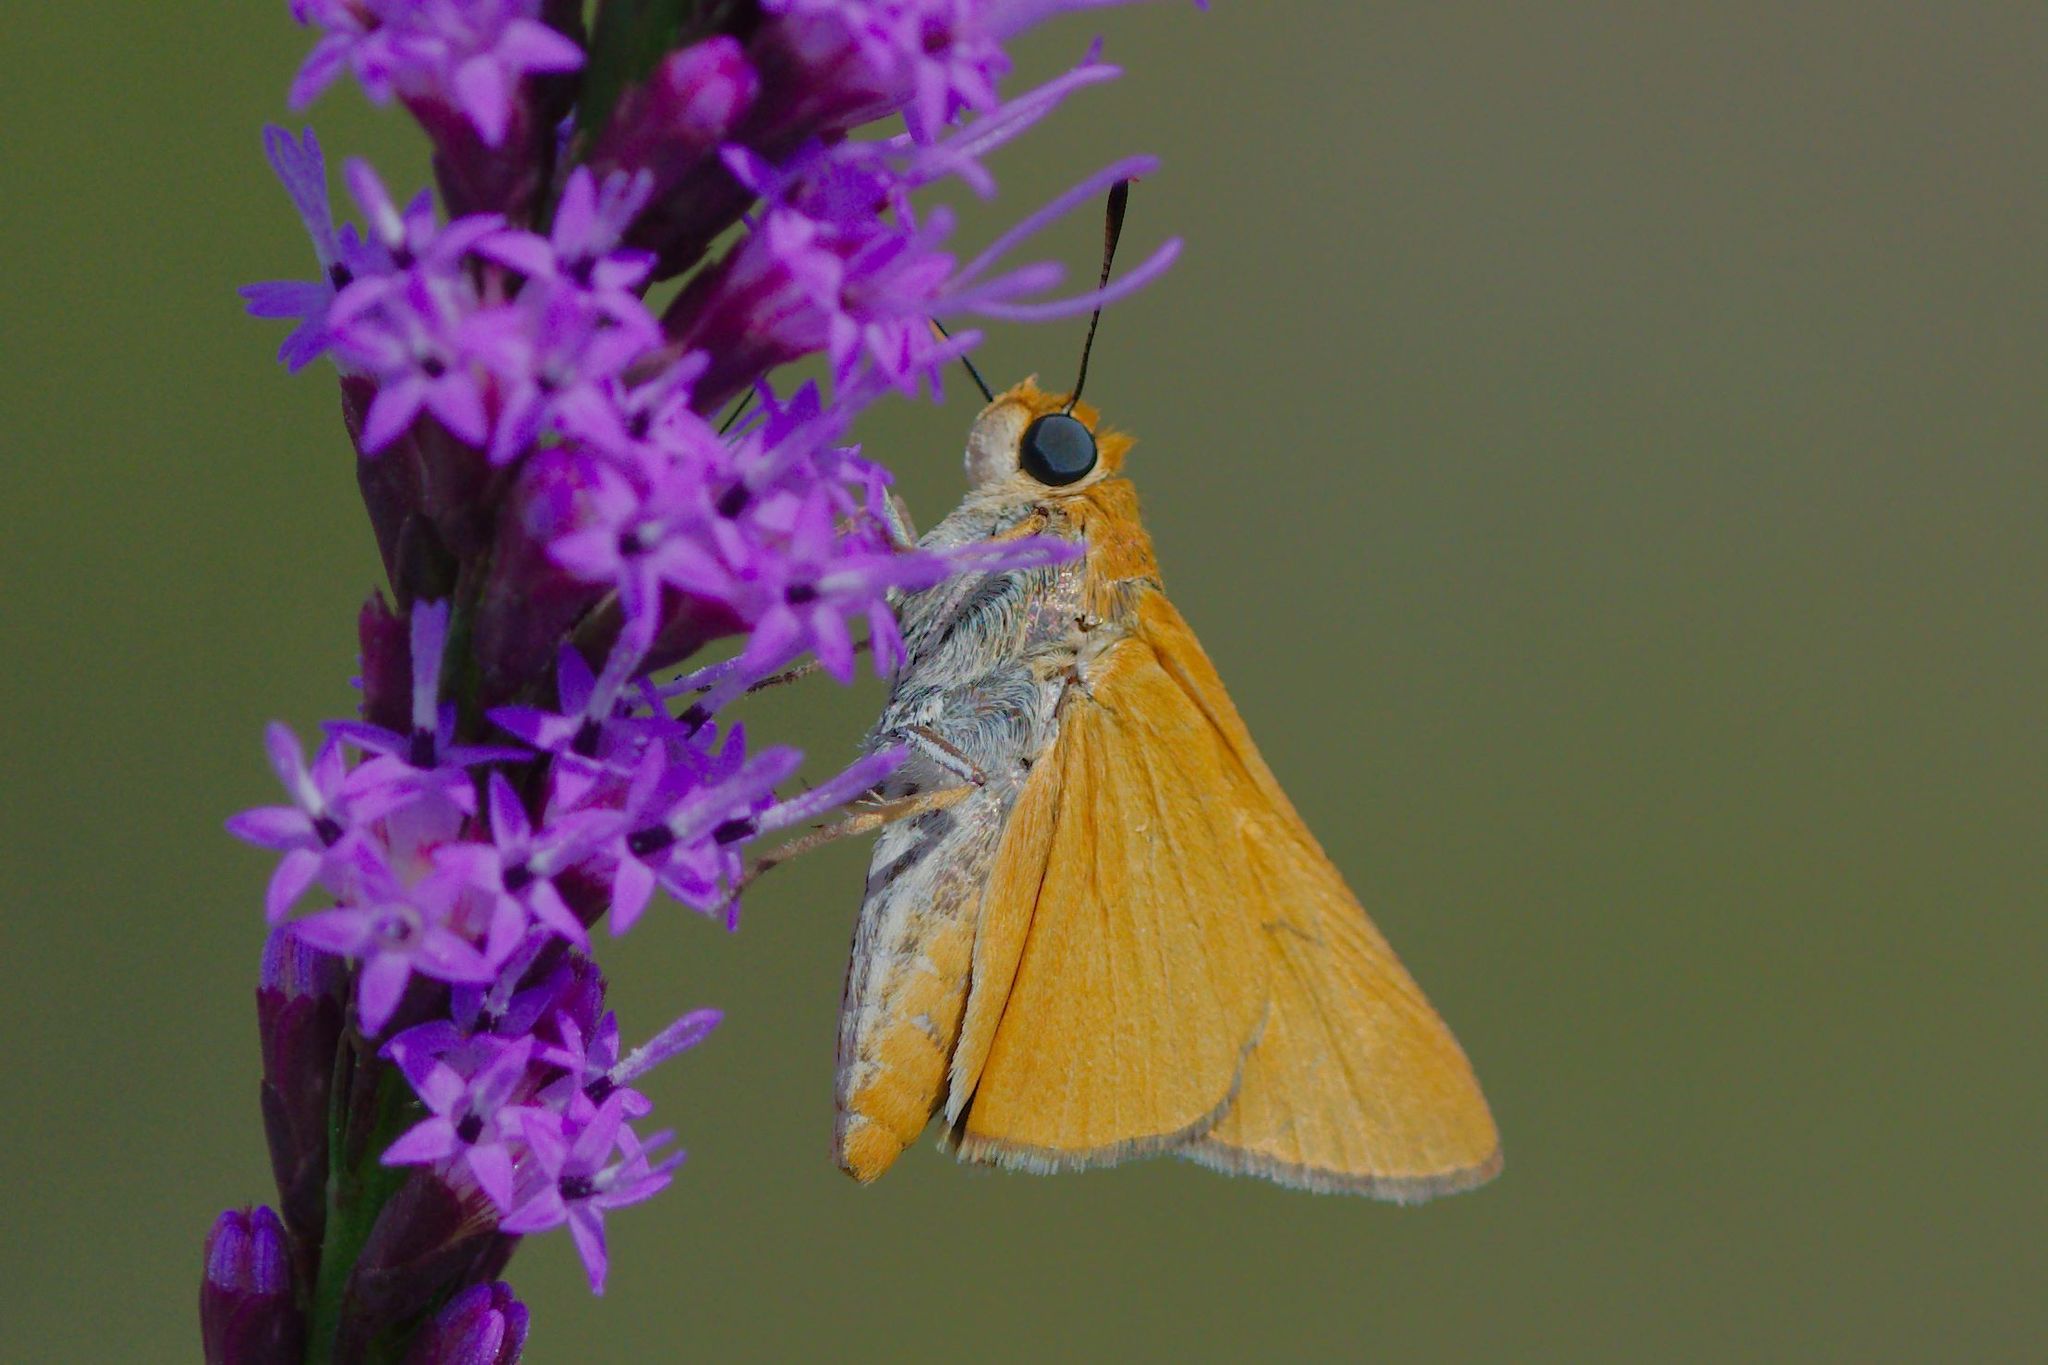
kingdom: Animalia
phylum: Arthropoda
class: Insecta
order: Lepidoptera
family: Hesperiidae
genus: Euphyes
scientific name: Euphyes arpa
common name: Palmetto skipper
